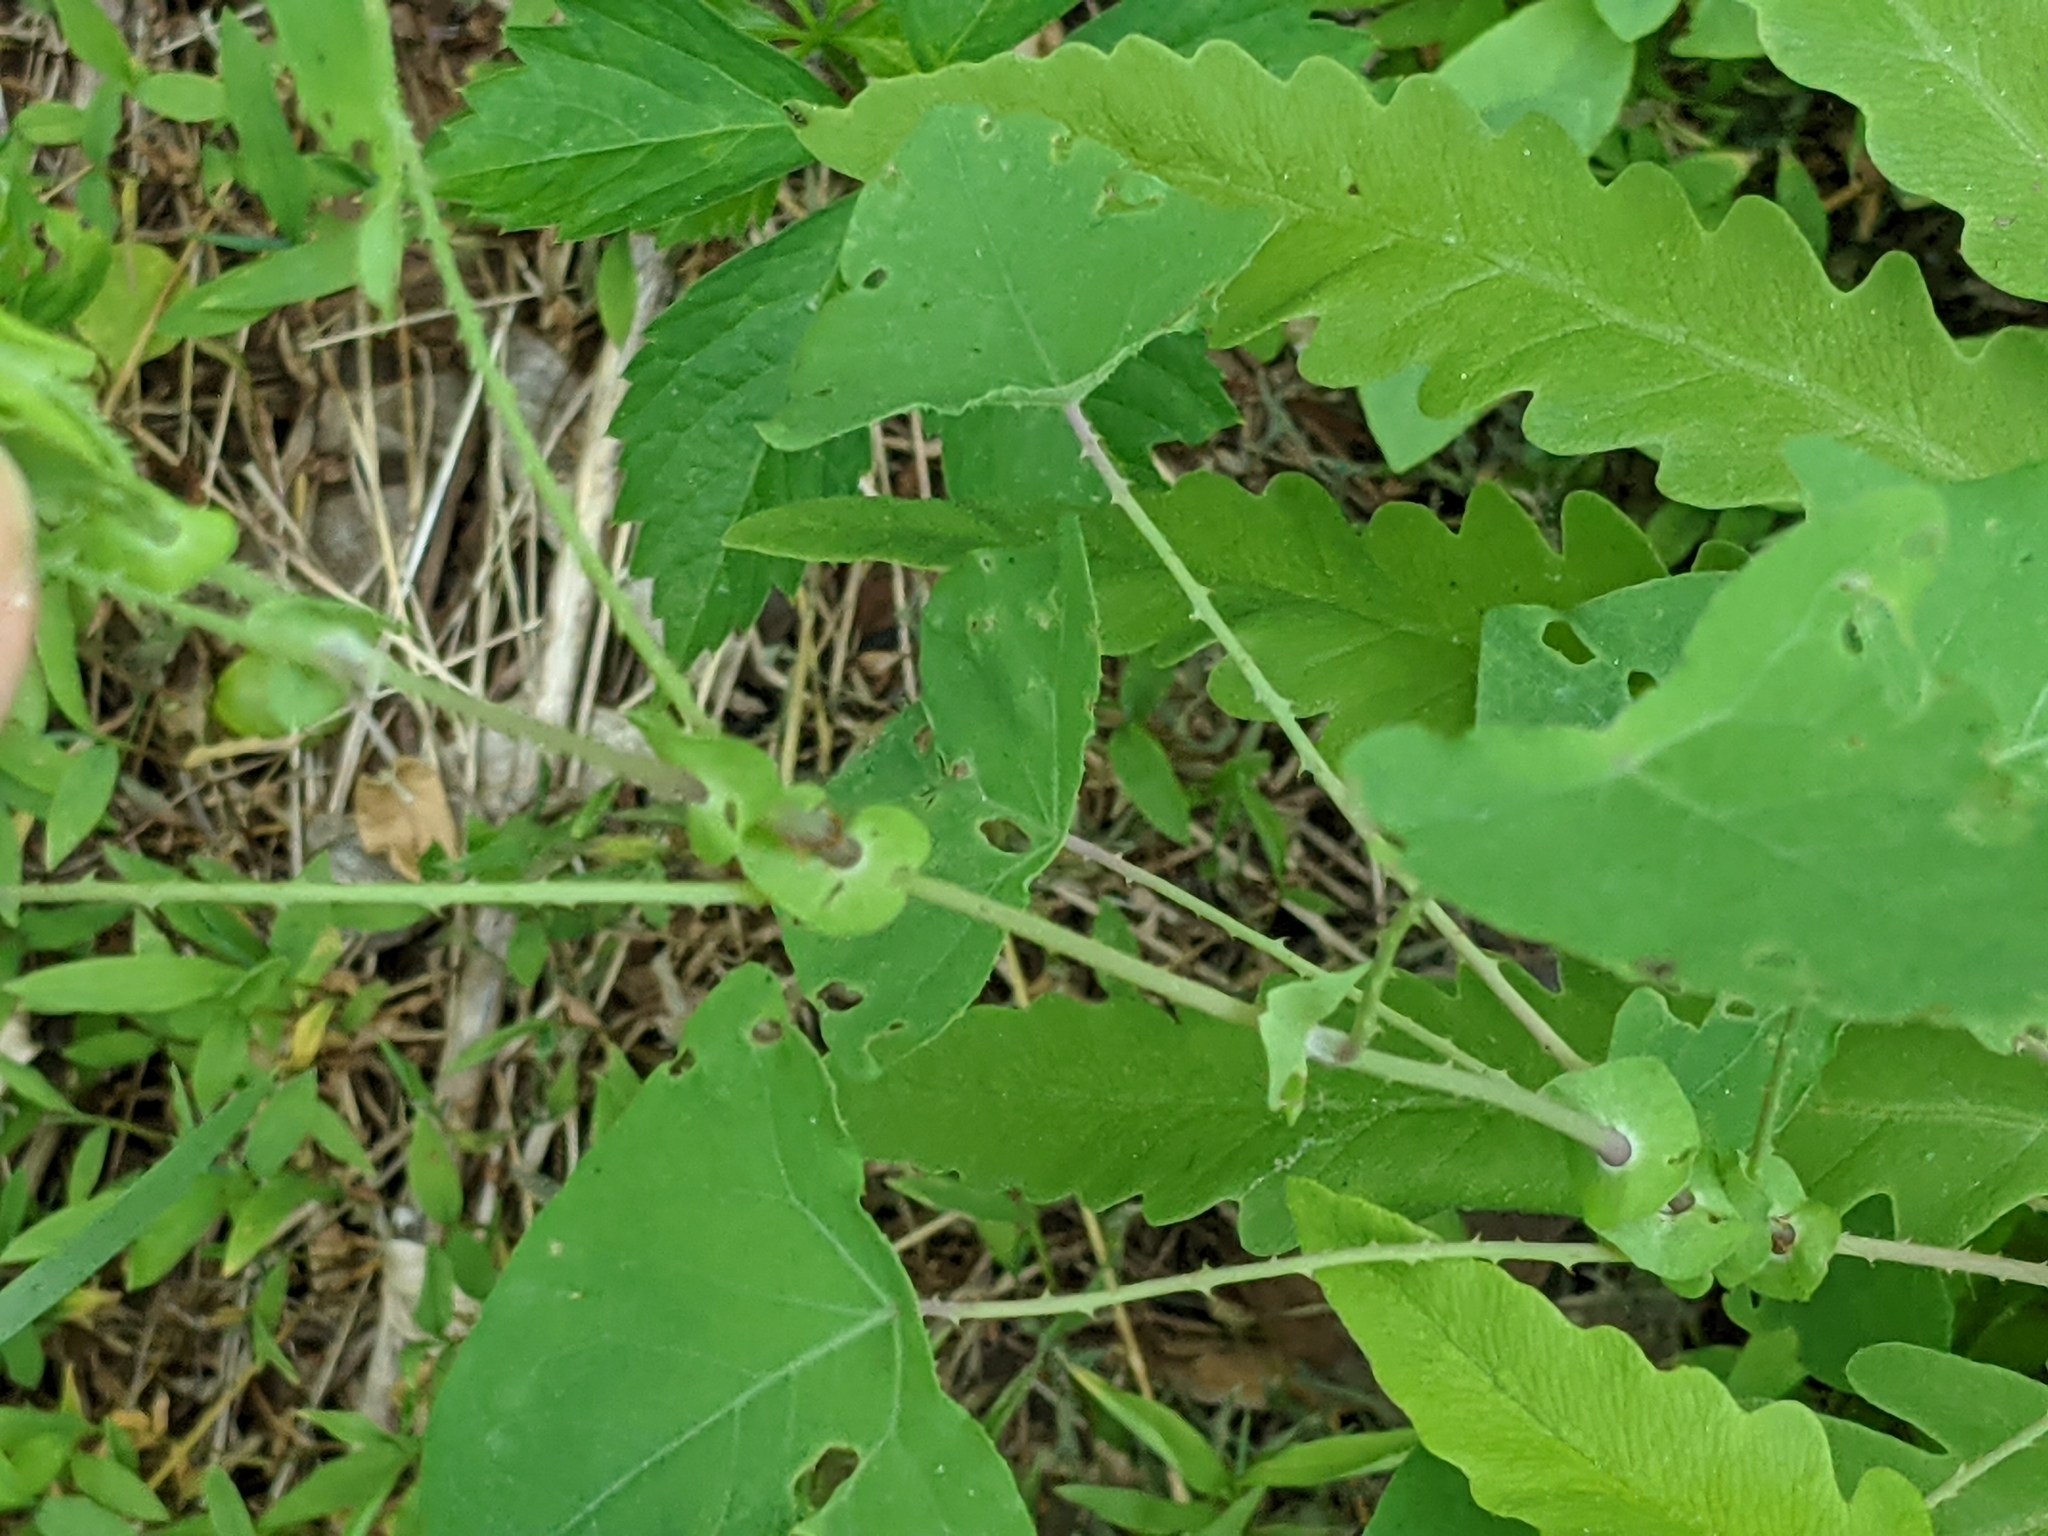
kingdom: Plantae
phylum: Tracheophyta
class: Magnoliopsida
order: Caryophyllales
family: Polygonaceae
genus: Persicaria
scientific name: Persicaria perfoliata
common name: Asiatic tearthumb
